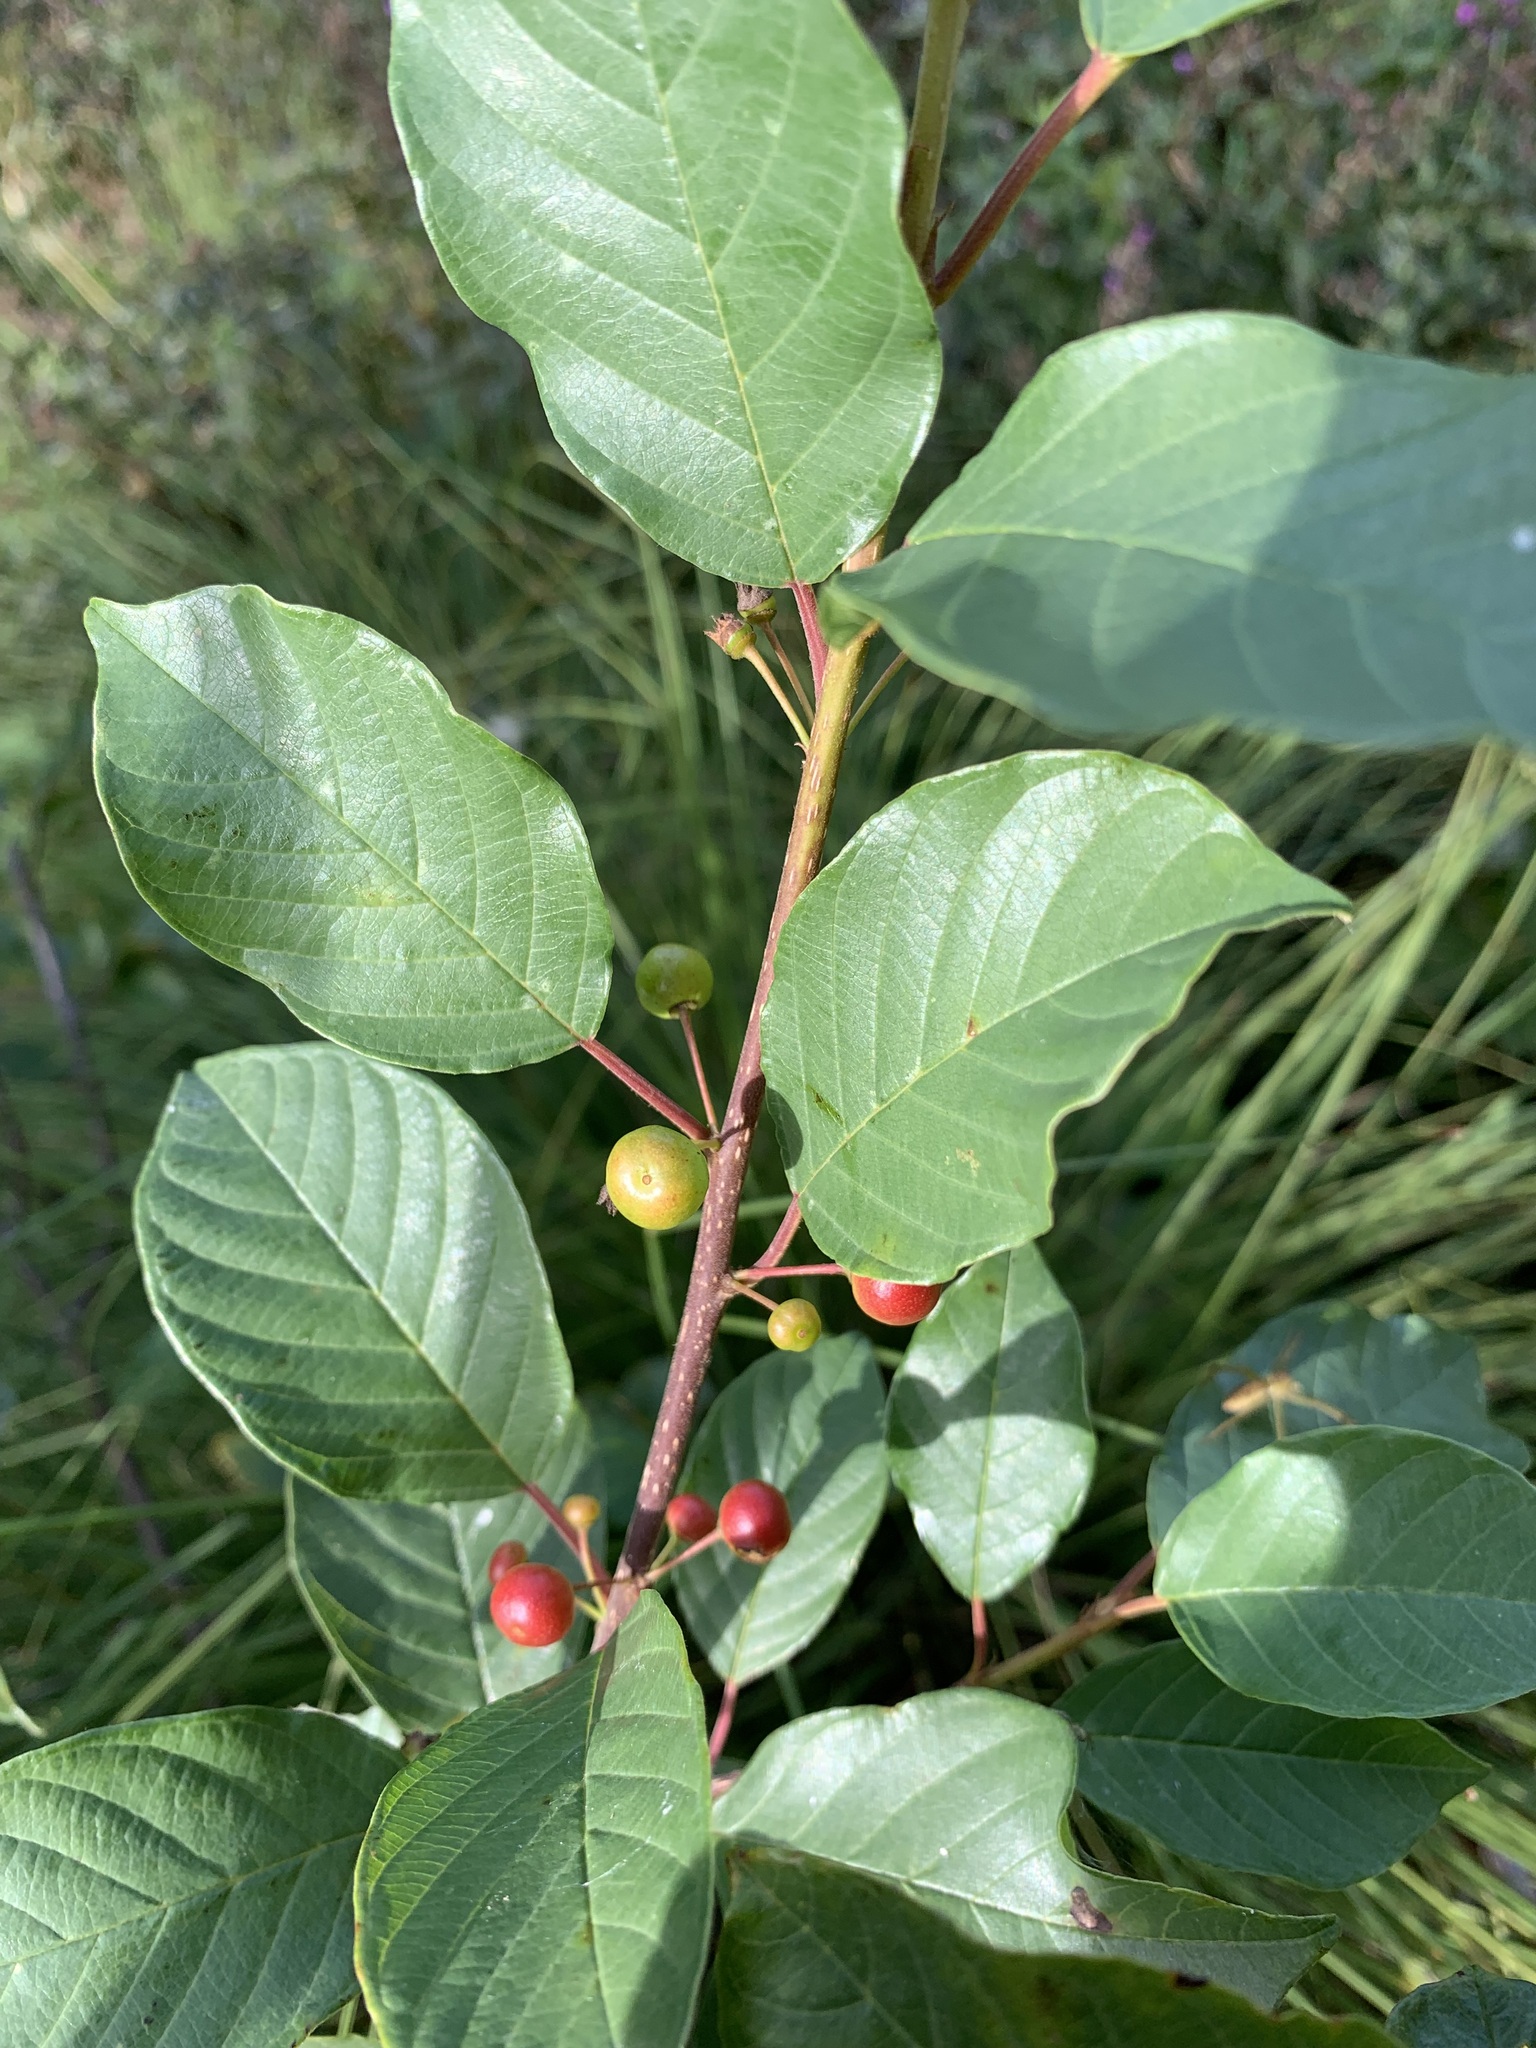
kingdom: Plantae
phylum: Tracheophyta
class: Magnoliopsida
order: Rosales
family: Rhamnaceae
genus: Frangula
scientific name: Frangula alnus
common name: Alder buckthorn
